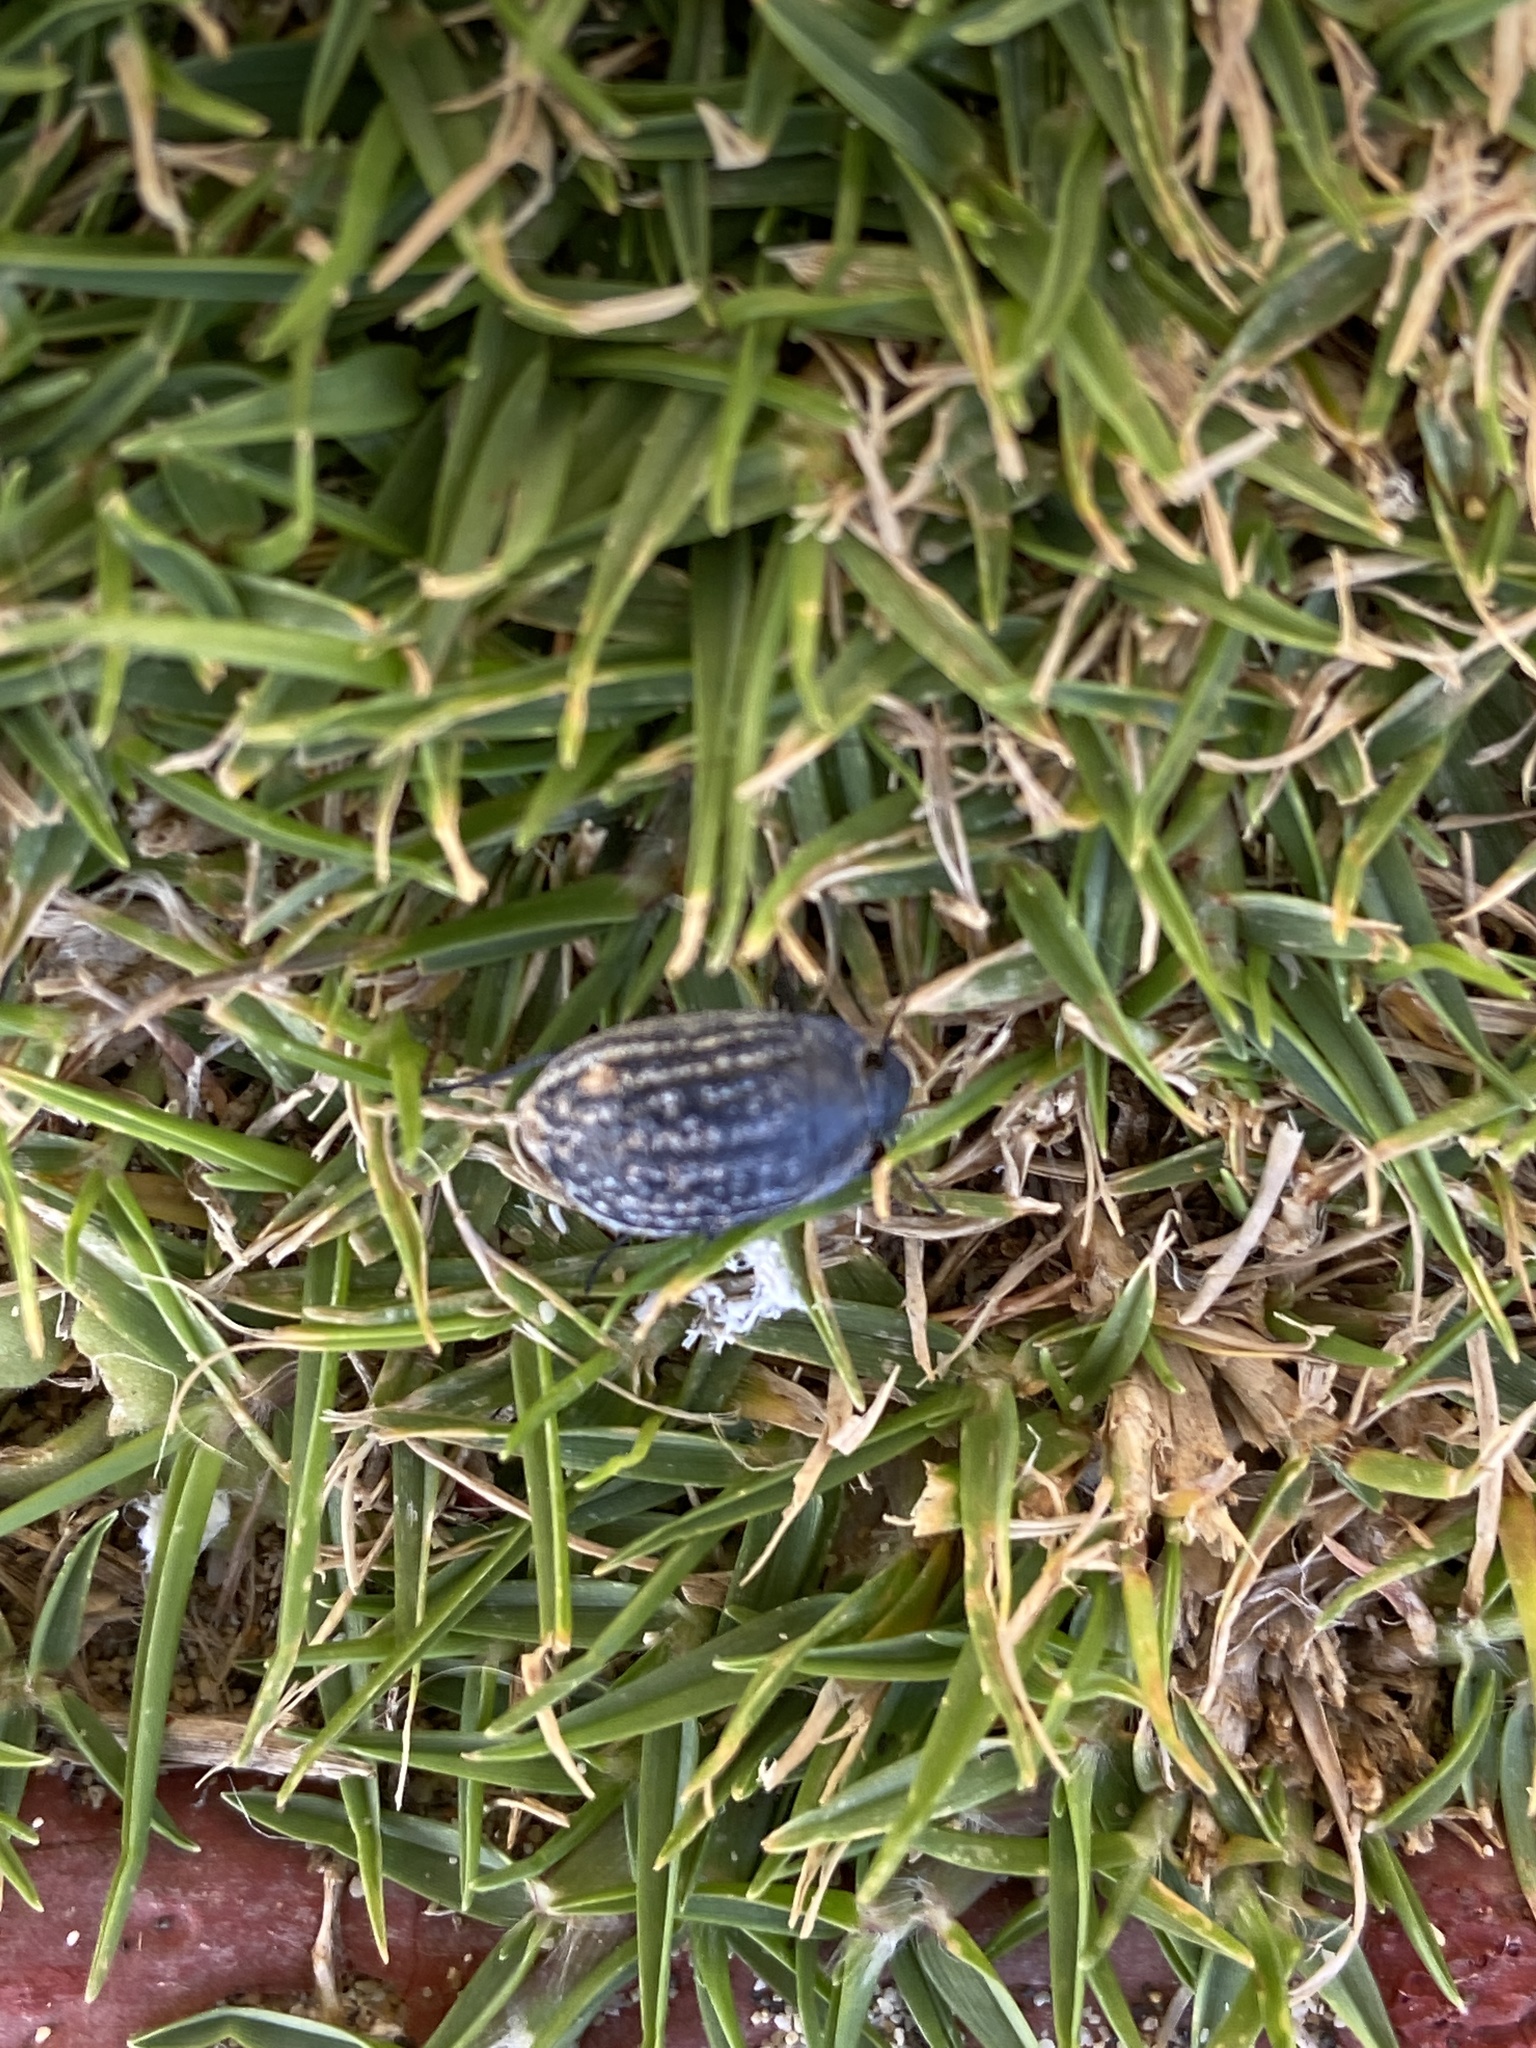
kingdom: Animalia
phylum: Arthropoda
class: Insecta
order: Coleoptera
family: Tenebrionidae
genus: Zophosis
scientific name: Zophosis bicarinata
